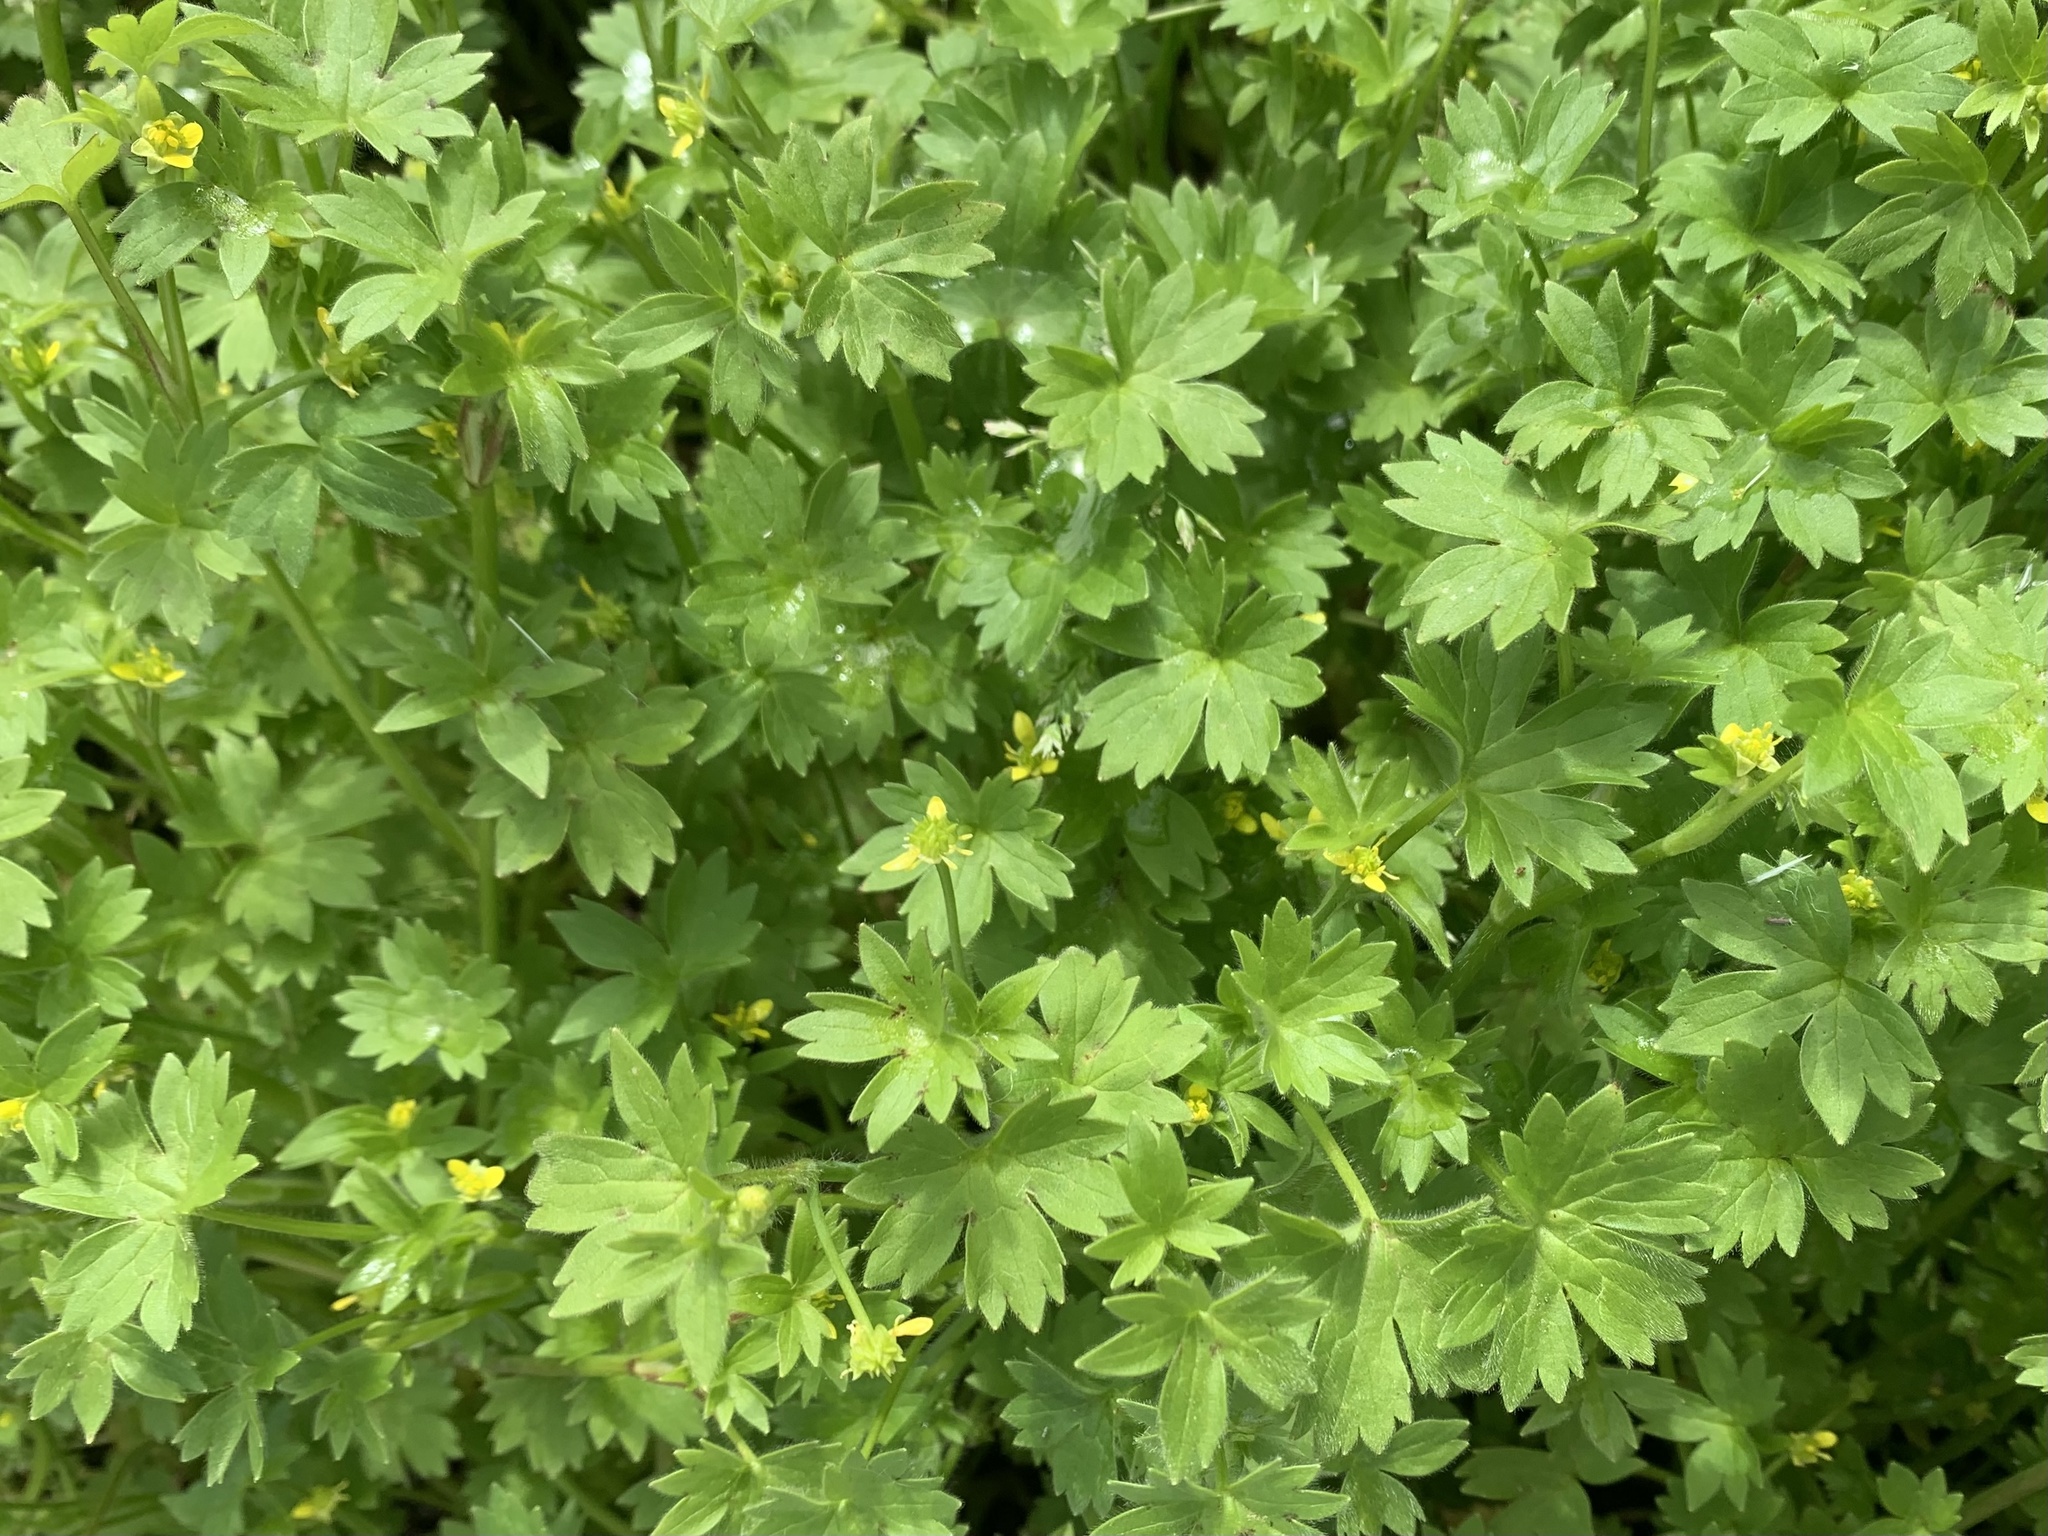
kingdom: Plantae
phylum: Tracheophyta
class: Magnoliopsida
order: Ranunculales
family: Ranunculaceae
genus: Ranunculus
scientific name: Ranunculus parviflorus
